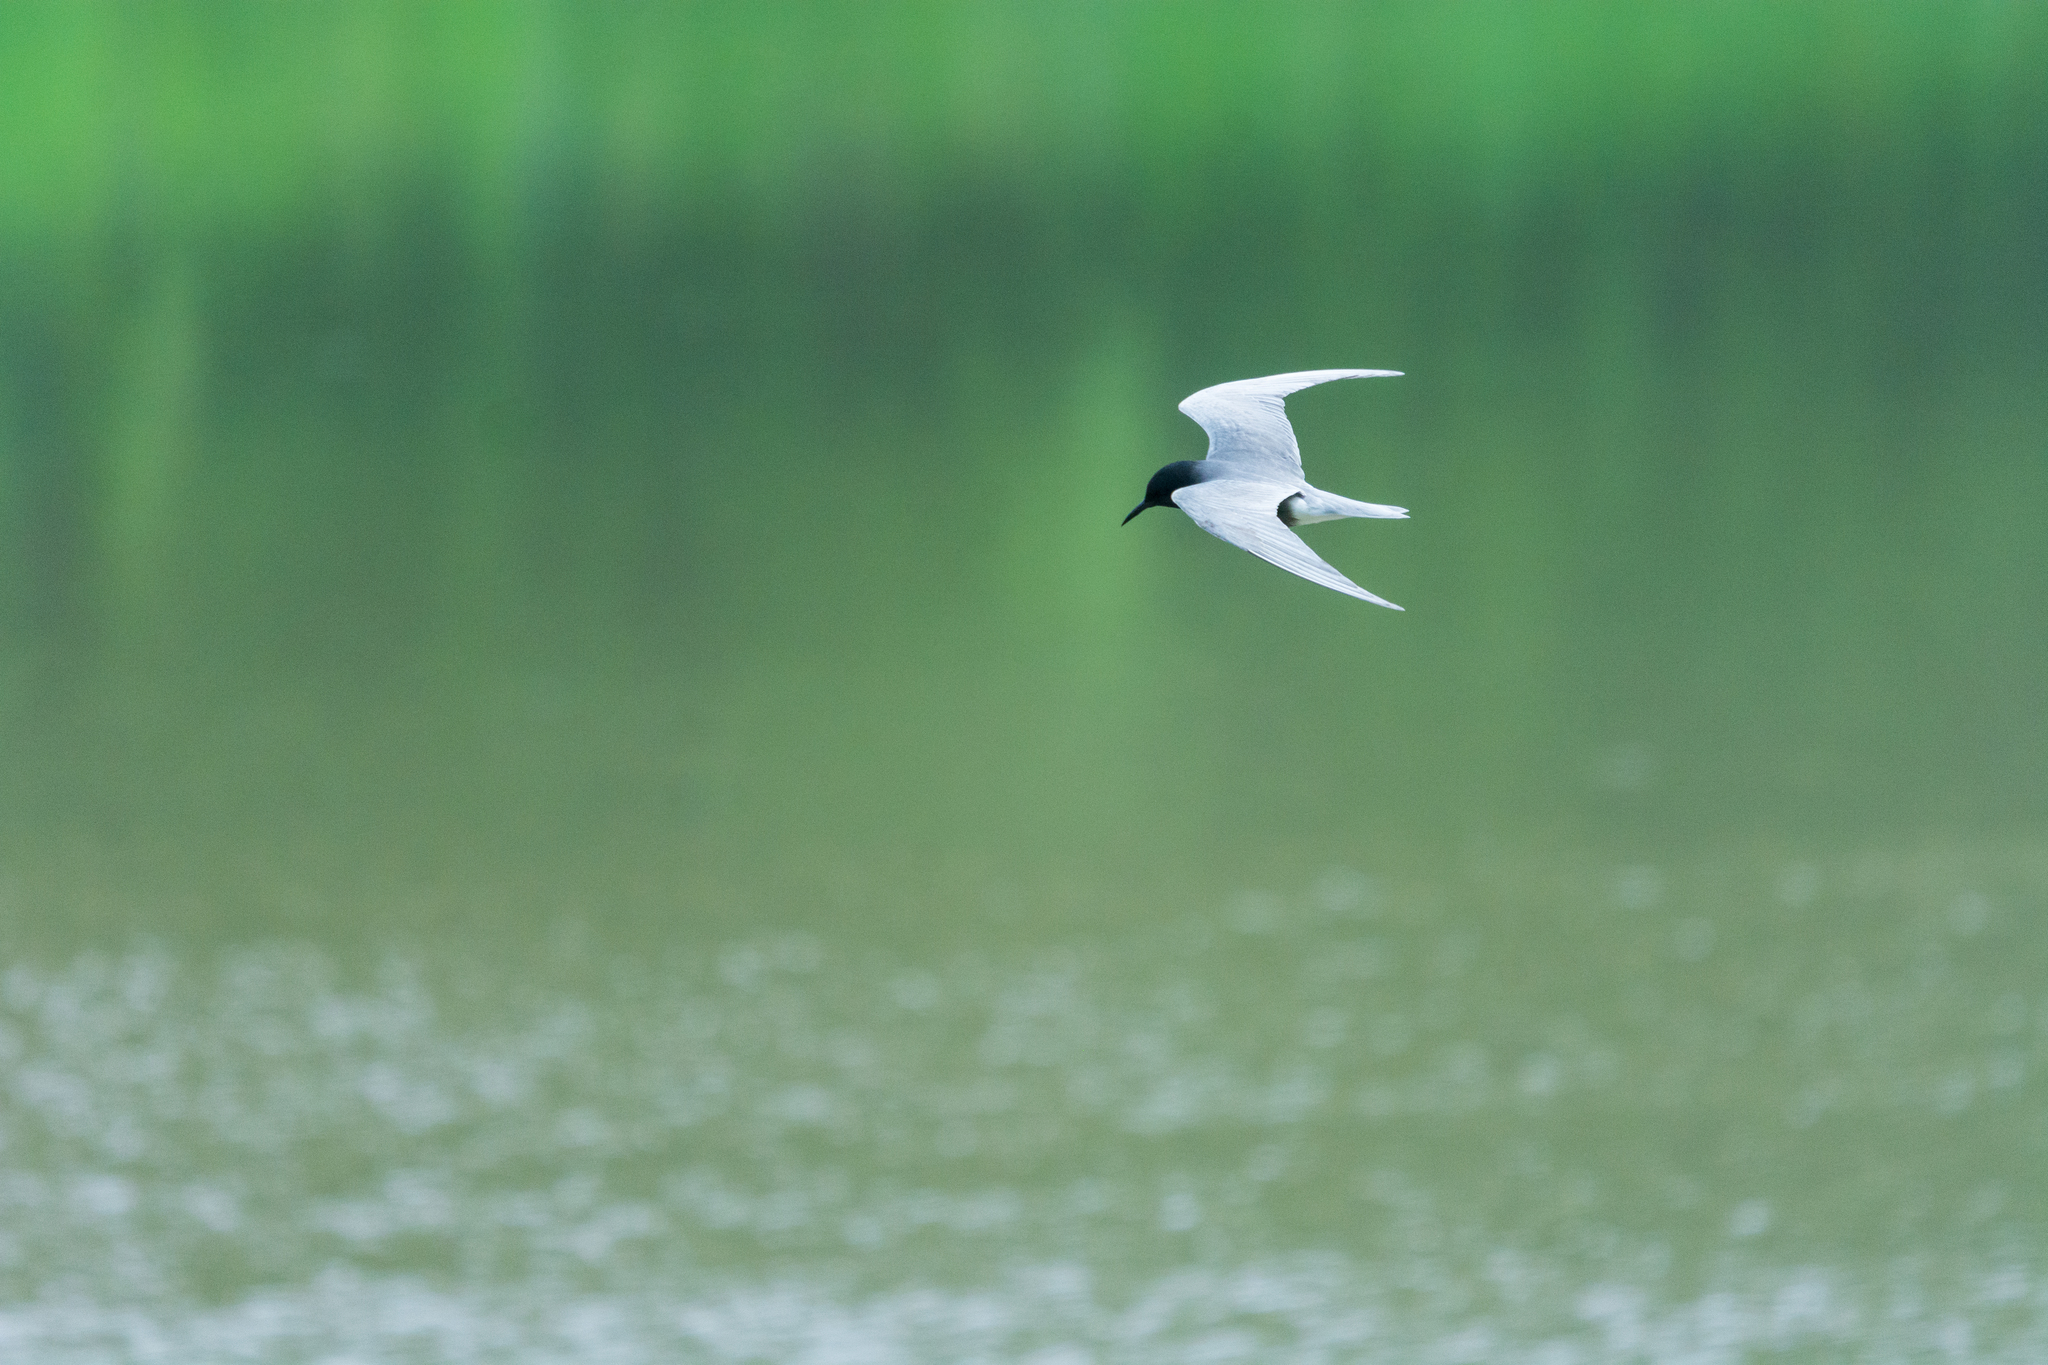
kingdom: Animalia
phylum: Chordata
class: Aves
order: Charadriiformes
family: Laridae
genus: Chlidonias
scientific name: Chlidonias niger
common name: Black tern
